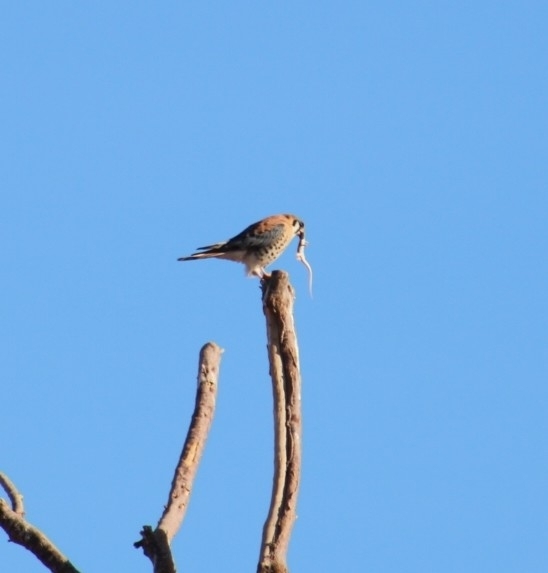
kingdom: Animalia
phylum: Chordata
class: Aves
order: Falconiformes
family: Falconidae
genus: Falco
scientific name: Falco sparverius
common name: American kestrel
